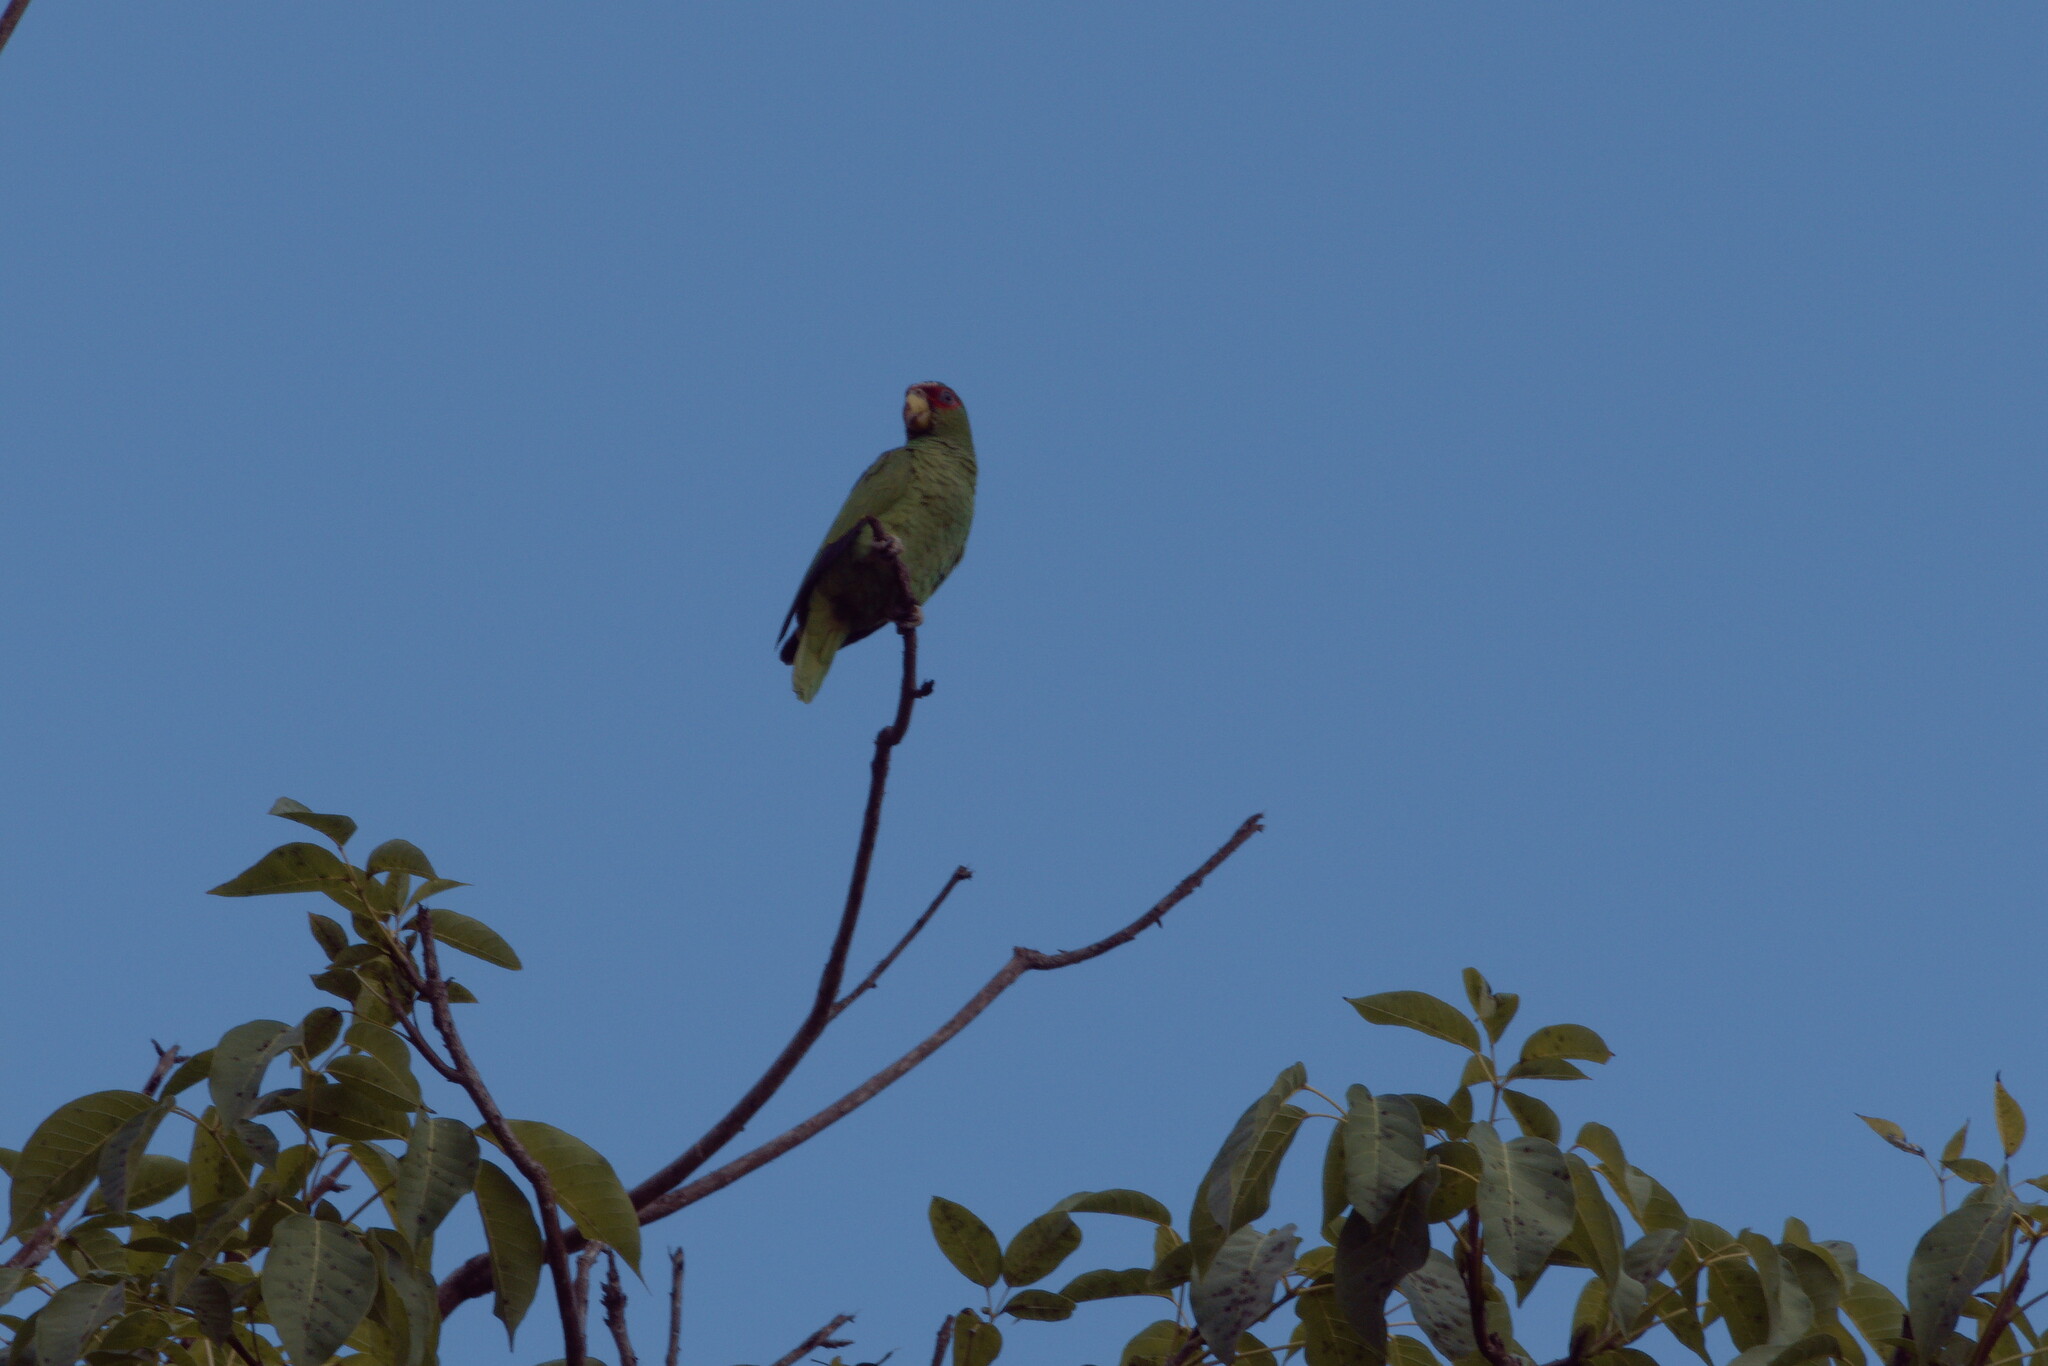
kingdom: Animalia
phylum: Chordata
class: Aves
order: Psittaciformes
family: Psittacidae
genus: Amazona
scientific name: Amazona albifrons
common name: White-fronted amazon
